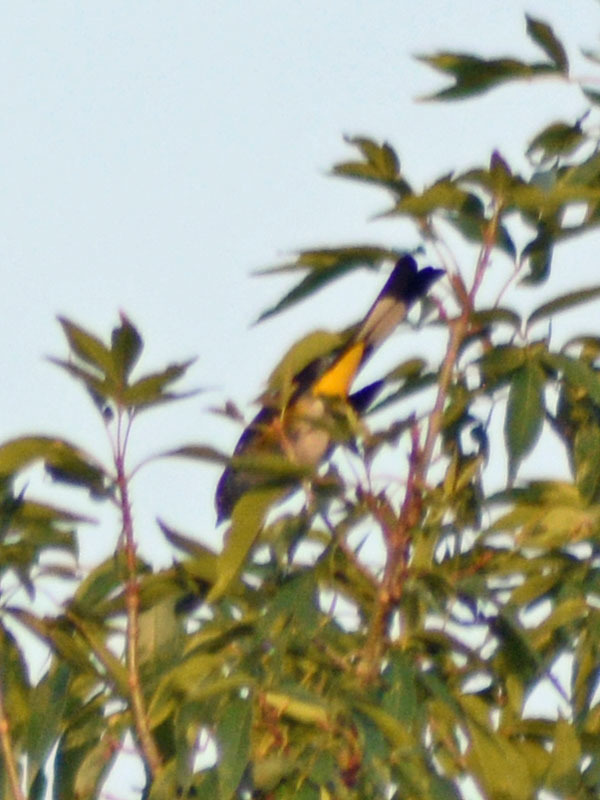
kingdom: Animalia
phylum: Chordata
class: Aves
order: Passeriformes
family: Ptilogonatidae
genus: Ptilogonys
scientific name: Ptilogonys cinereus
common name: Gray silky-flycatcher
